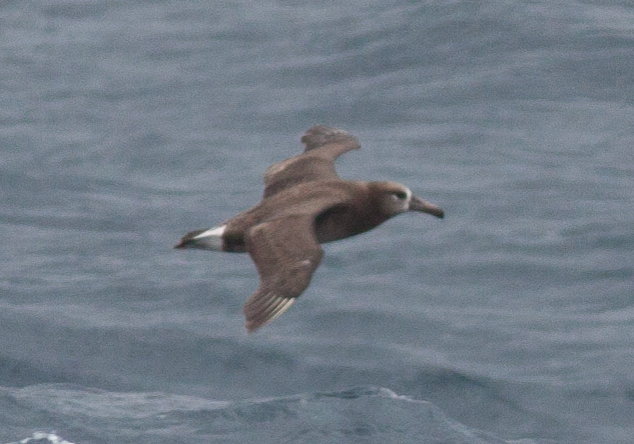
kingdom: Animalia
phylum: Chordata
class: Aves
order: Procellariiformes
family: Diomedeidae
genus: Phoebastria
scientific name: Phoebastria nigripes
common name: Black-footed albatross
